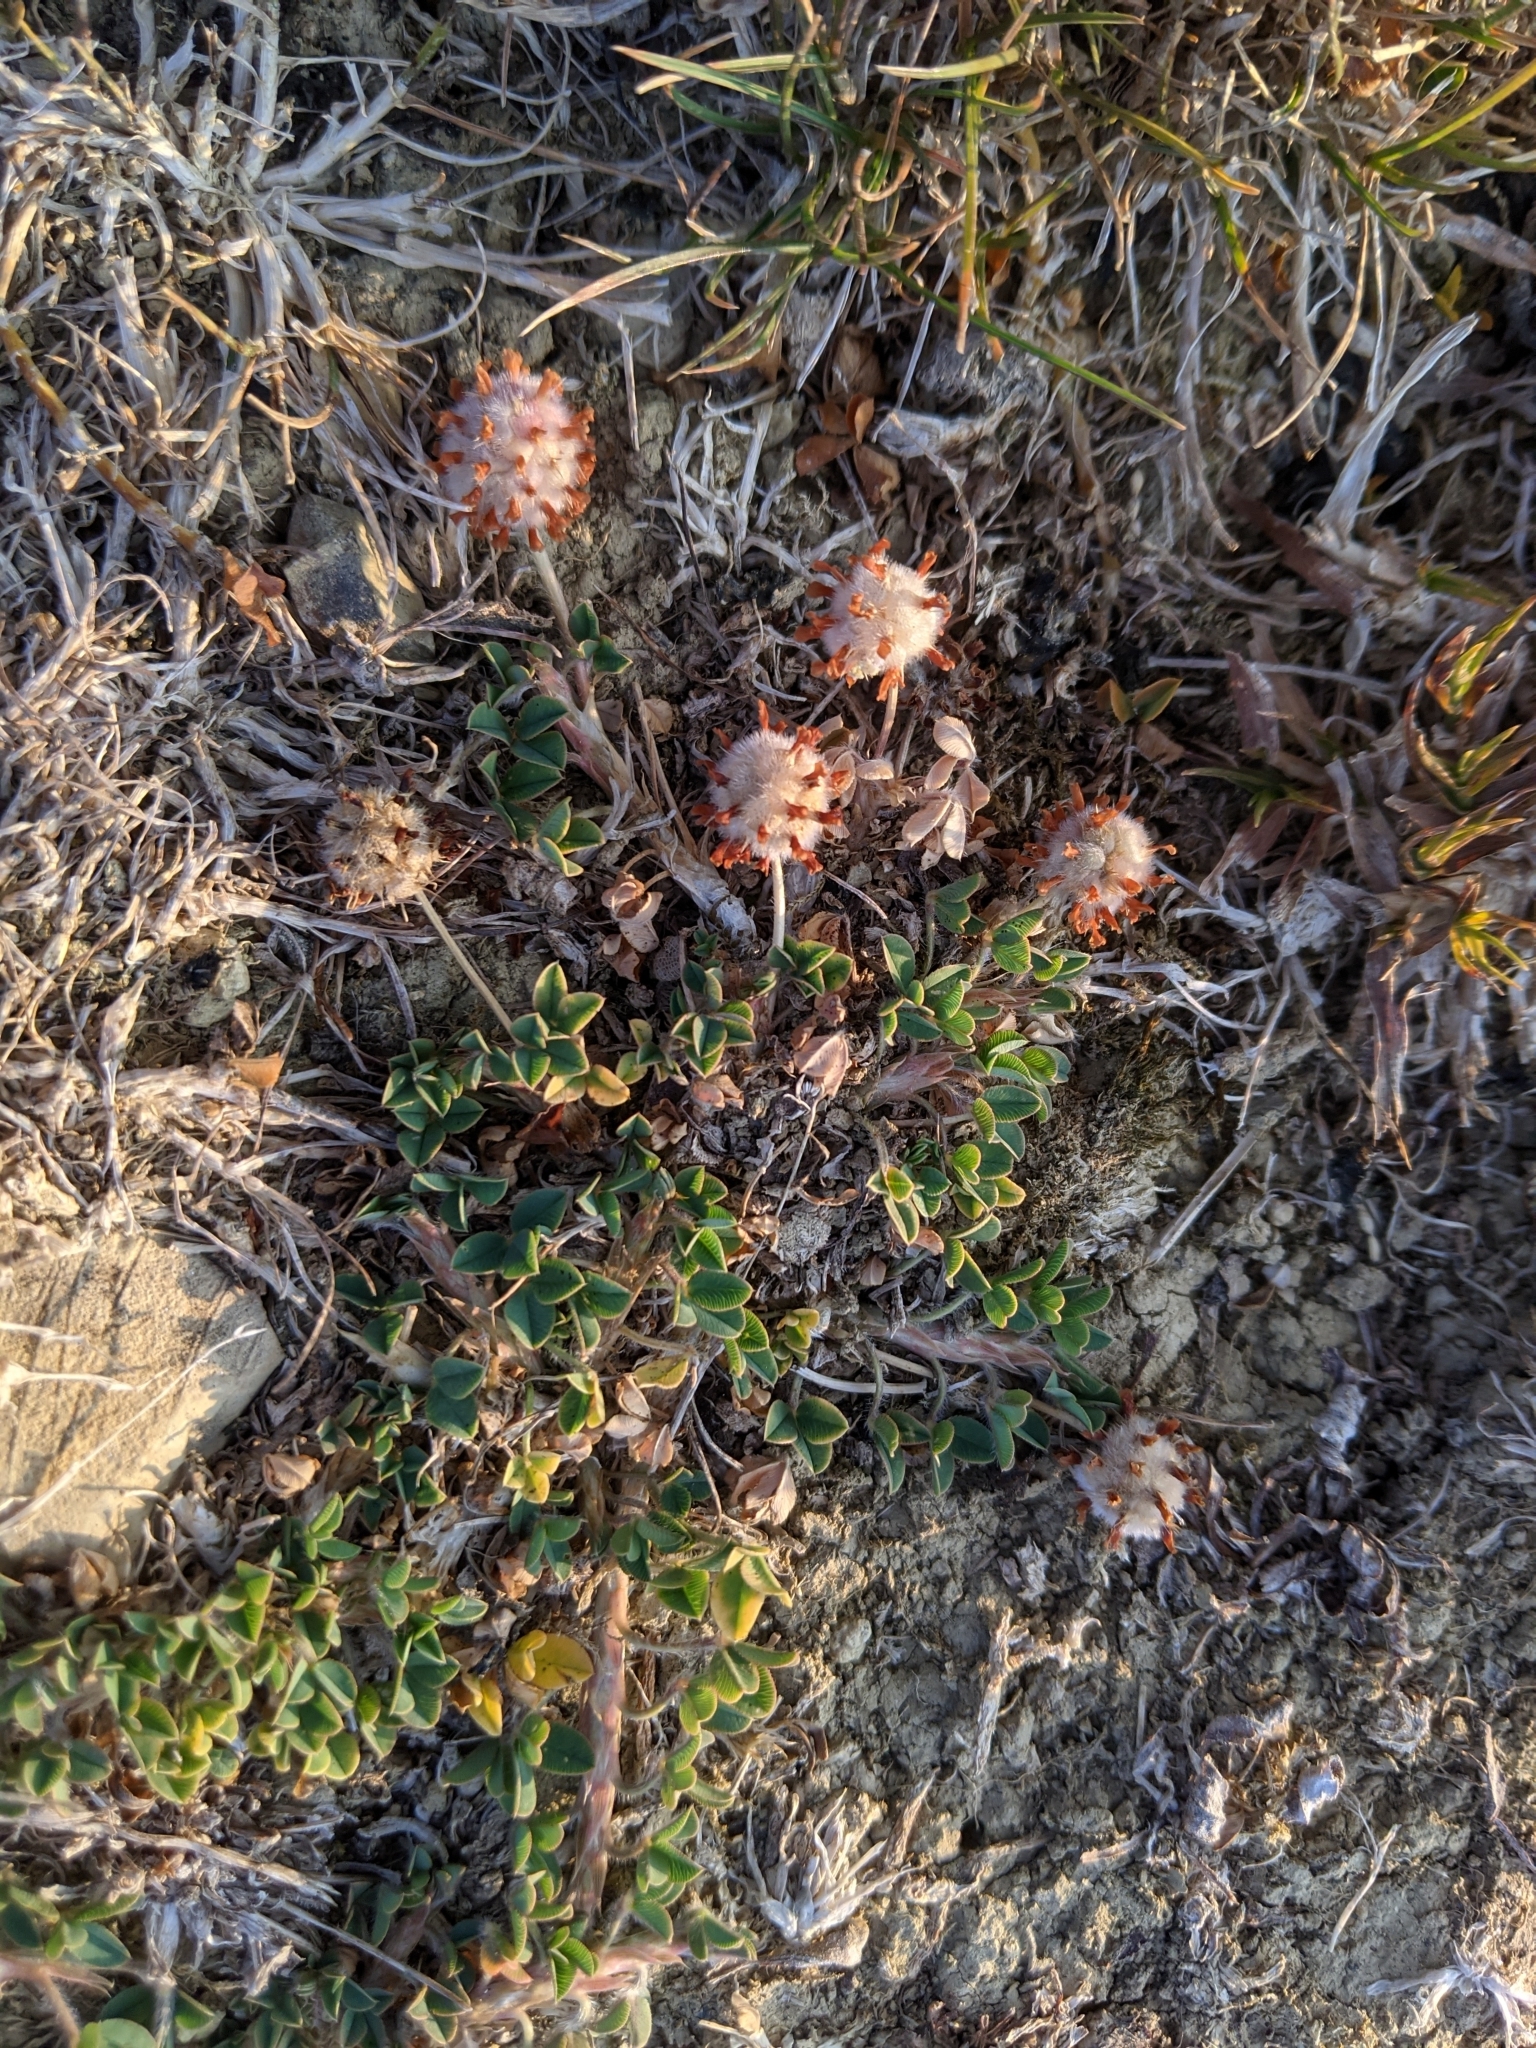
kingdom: Plantae
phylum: Tracheophyta
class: Magnoliopsida
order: Fabales
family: Fabaceae
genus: Trifolium
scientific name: Trifolium fragiferum
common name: Strawberry clover
